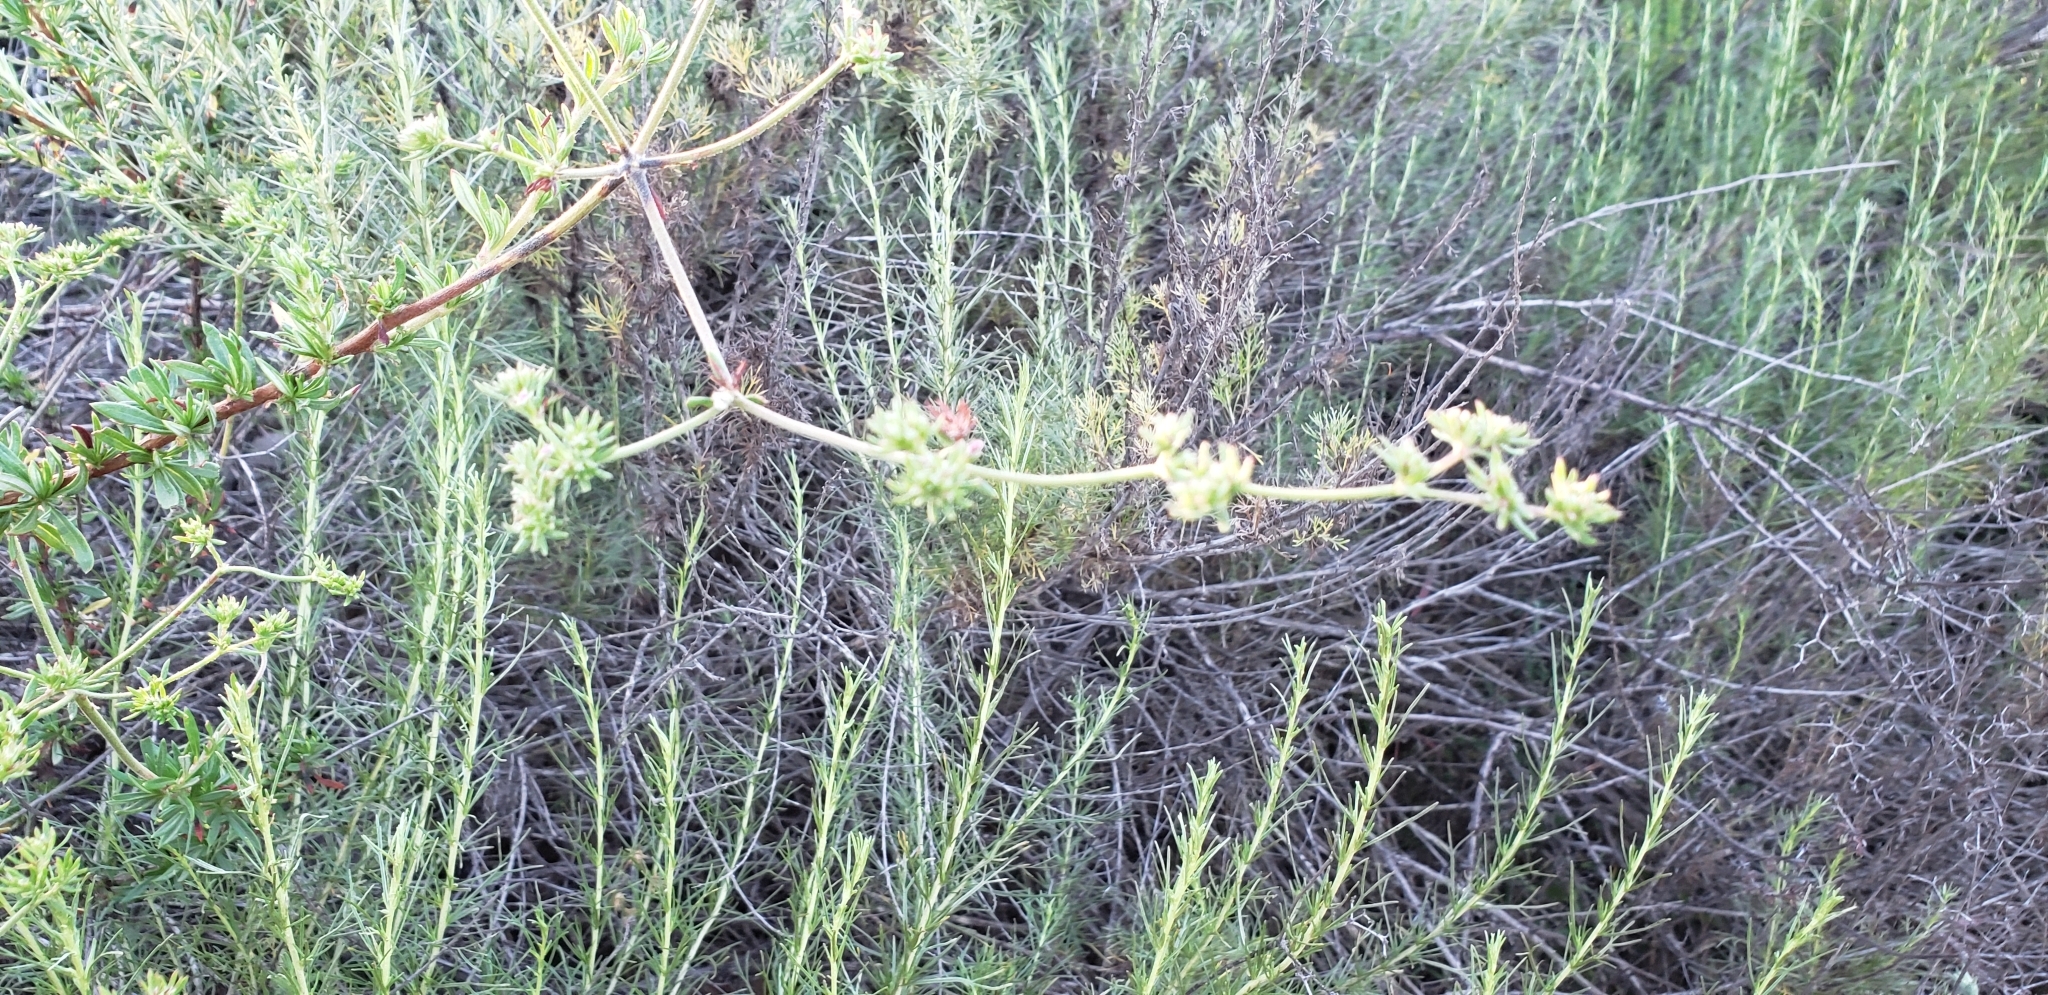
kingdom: Plantae
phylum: Tracheophyta
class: Magnoliopsida
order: Caryophyllales
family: Polygonaceae
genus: Eriogonum
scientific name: Eriogonum fasciculatum
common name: California wild buckwheat
